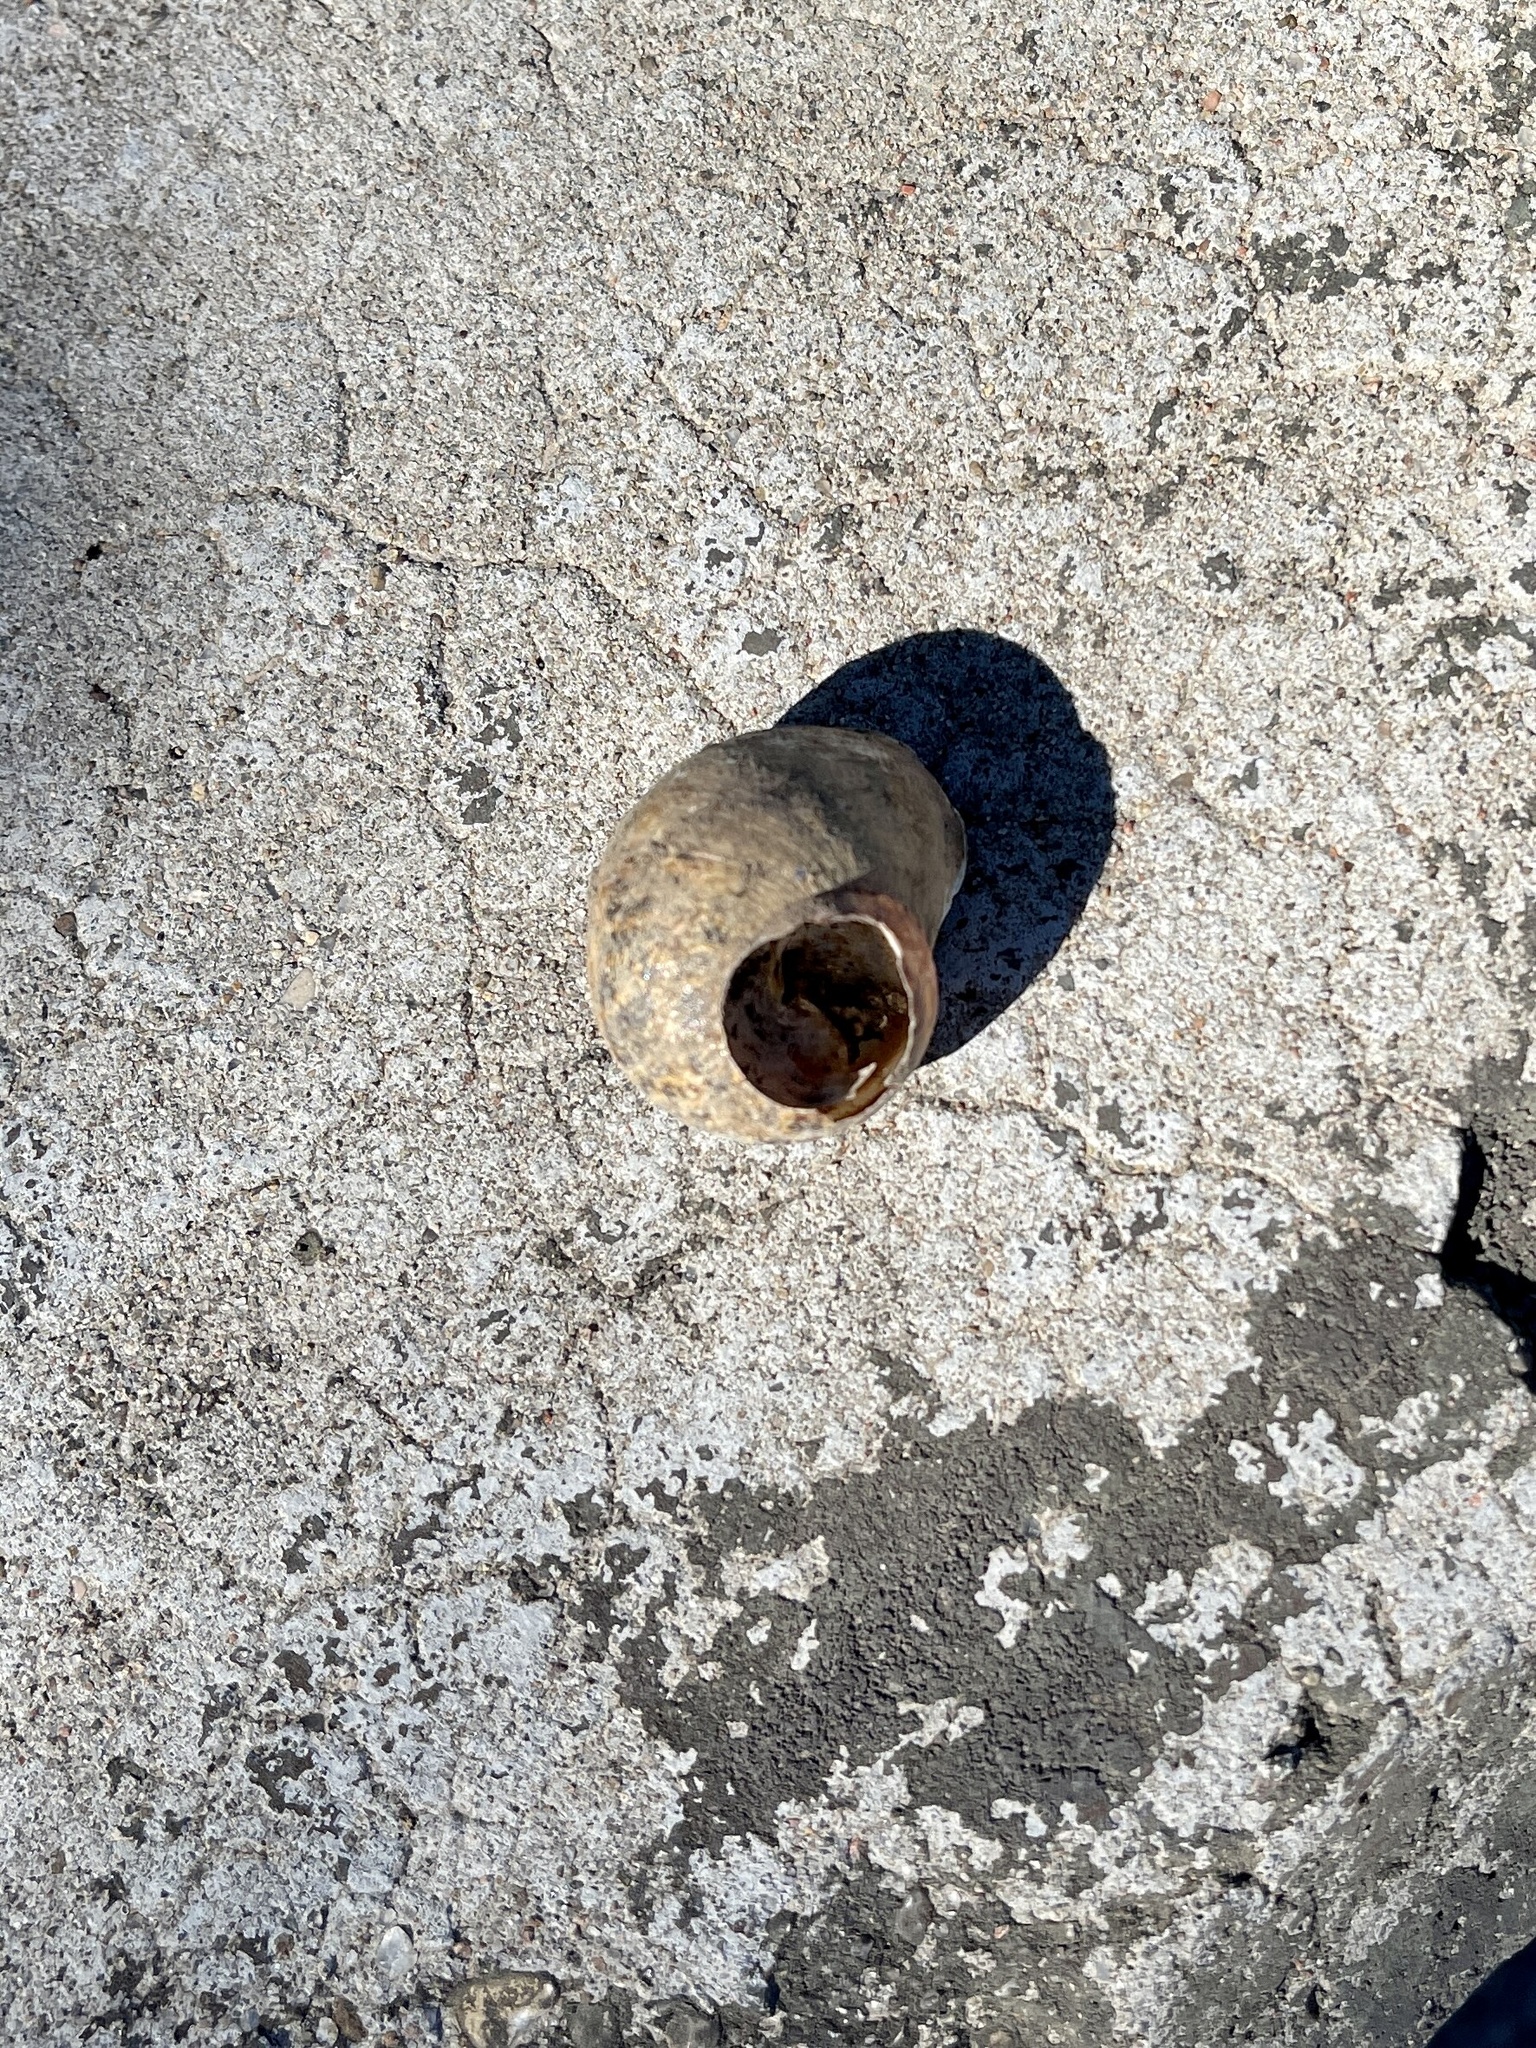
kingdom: Animalia
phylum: Mollusca
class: Gastropoda
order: Stylommatophora
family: Helicidae
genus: Cornu
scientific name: Cornu aspersum
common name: Brown garden snail
